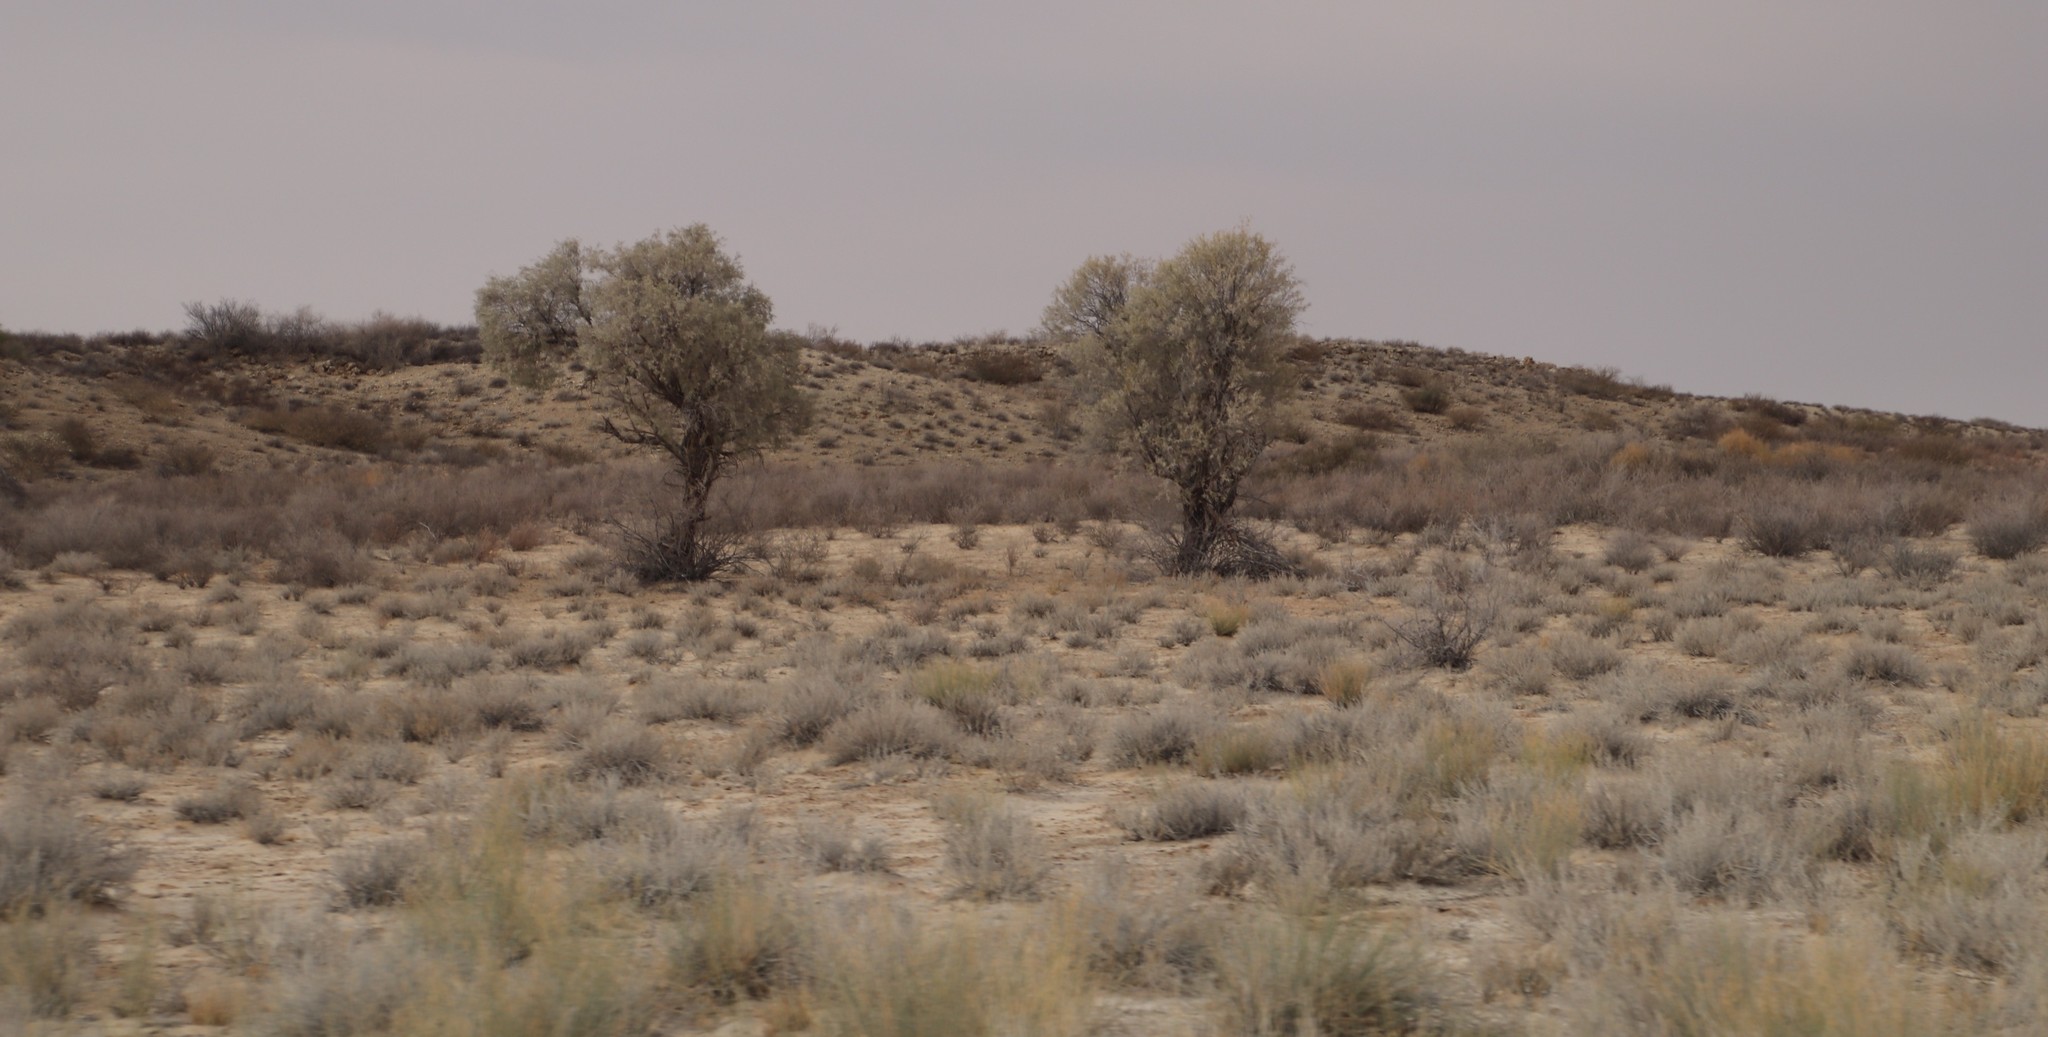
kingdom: Plantae
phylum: Tracheophyta
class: Magnoliopsida
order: Fabales
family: Fabaceae
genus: Vachellia
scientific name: Vachellia haematoxylon
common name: Grey camel thorn
